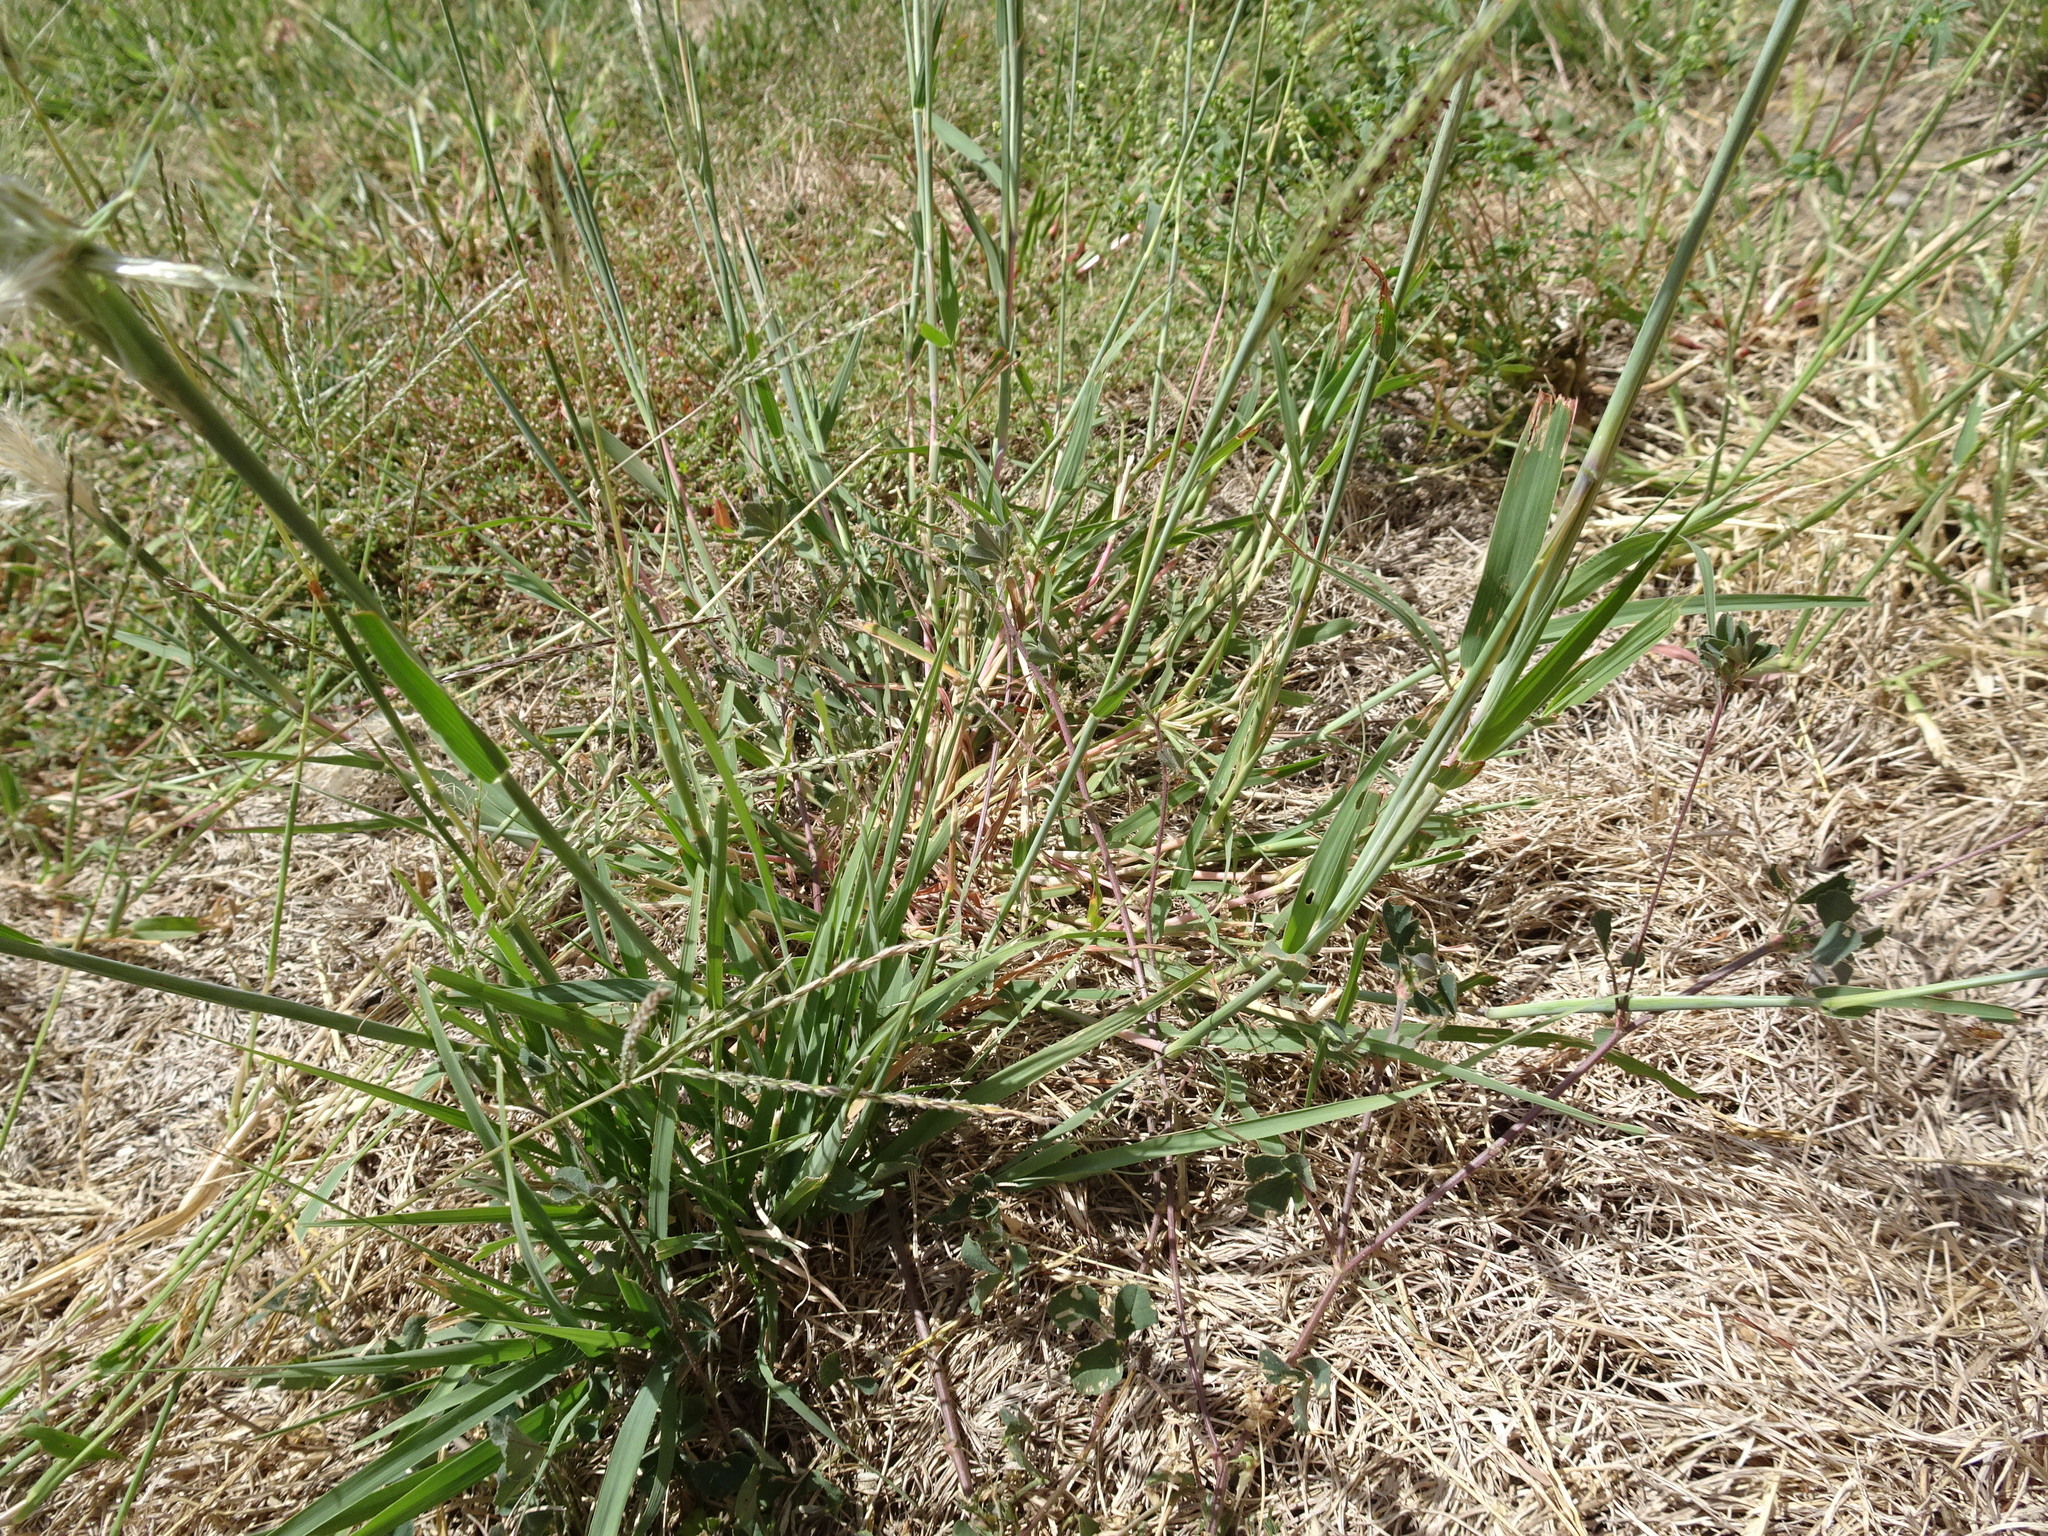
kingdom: Plantae
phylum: Tracheophyta
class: Liliopsida
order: Poales
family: Poaceae
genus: Bothriochloa
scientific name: Bothriochloa torreyana
